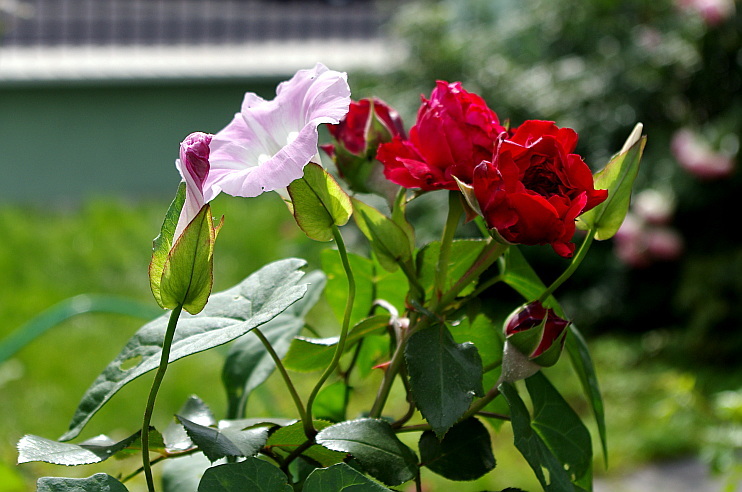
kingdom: Plantae
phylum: Tracheophyta
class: Magnoliopsida
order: Solanales
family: Convolvulaceae
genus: Calystegia
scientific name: Calystegia sepium
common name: Hedge bindweed
